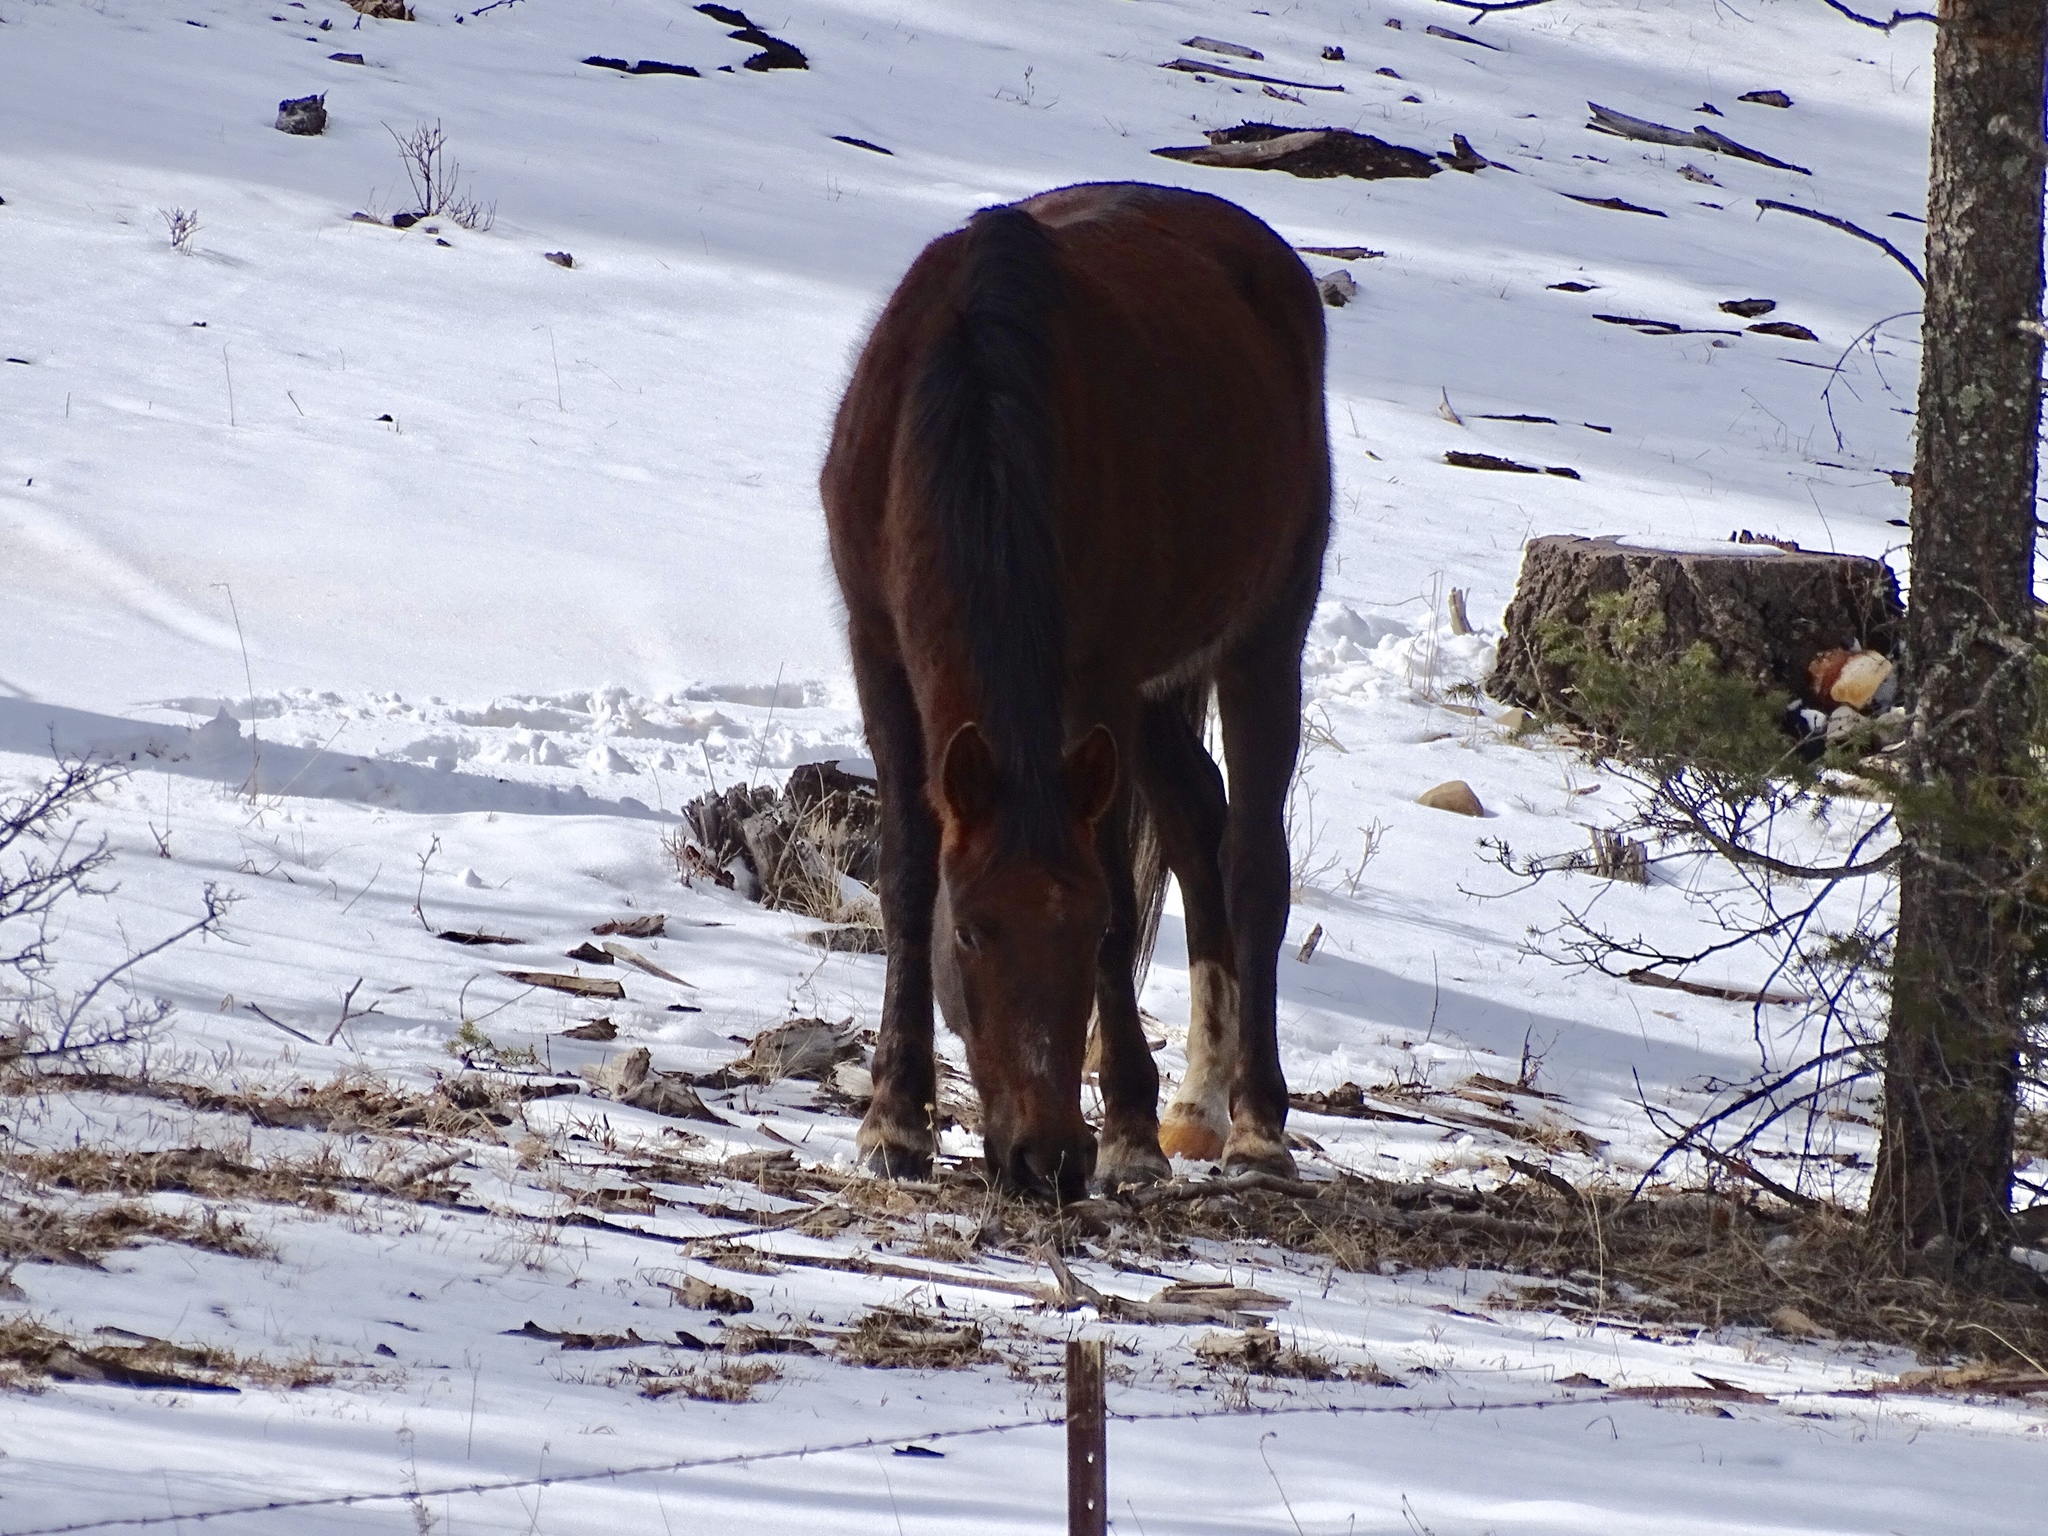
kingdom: Animalia
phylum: Chordata
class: Mammalia
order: Perissodactyla
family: Equidae
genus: Equus
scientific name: Equus caballus
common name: Horse
